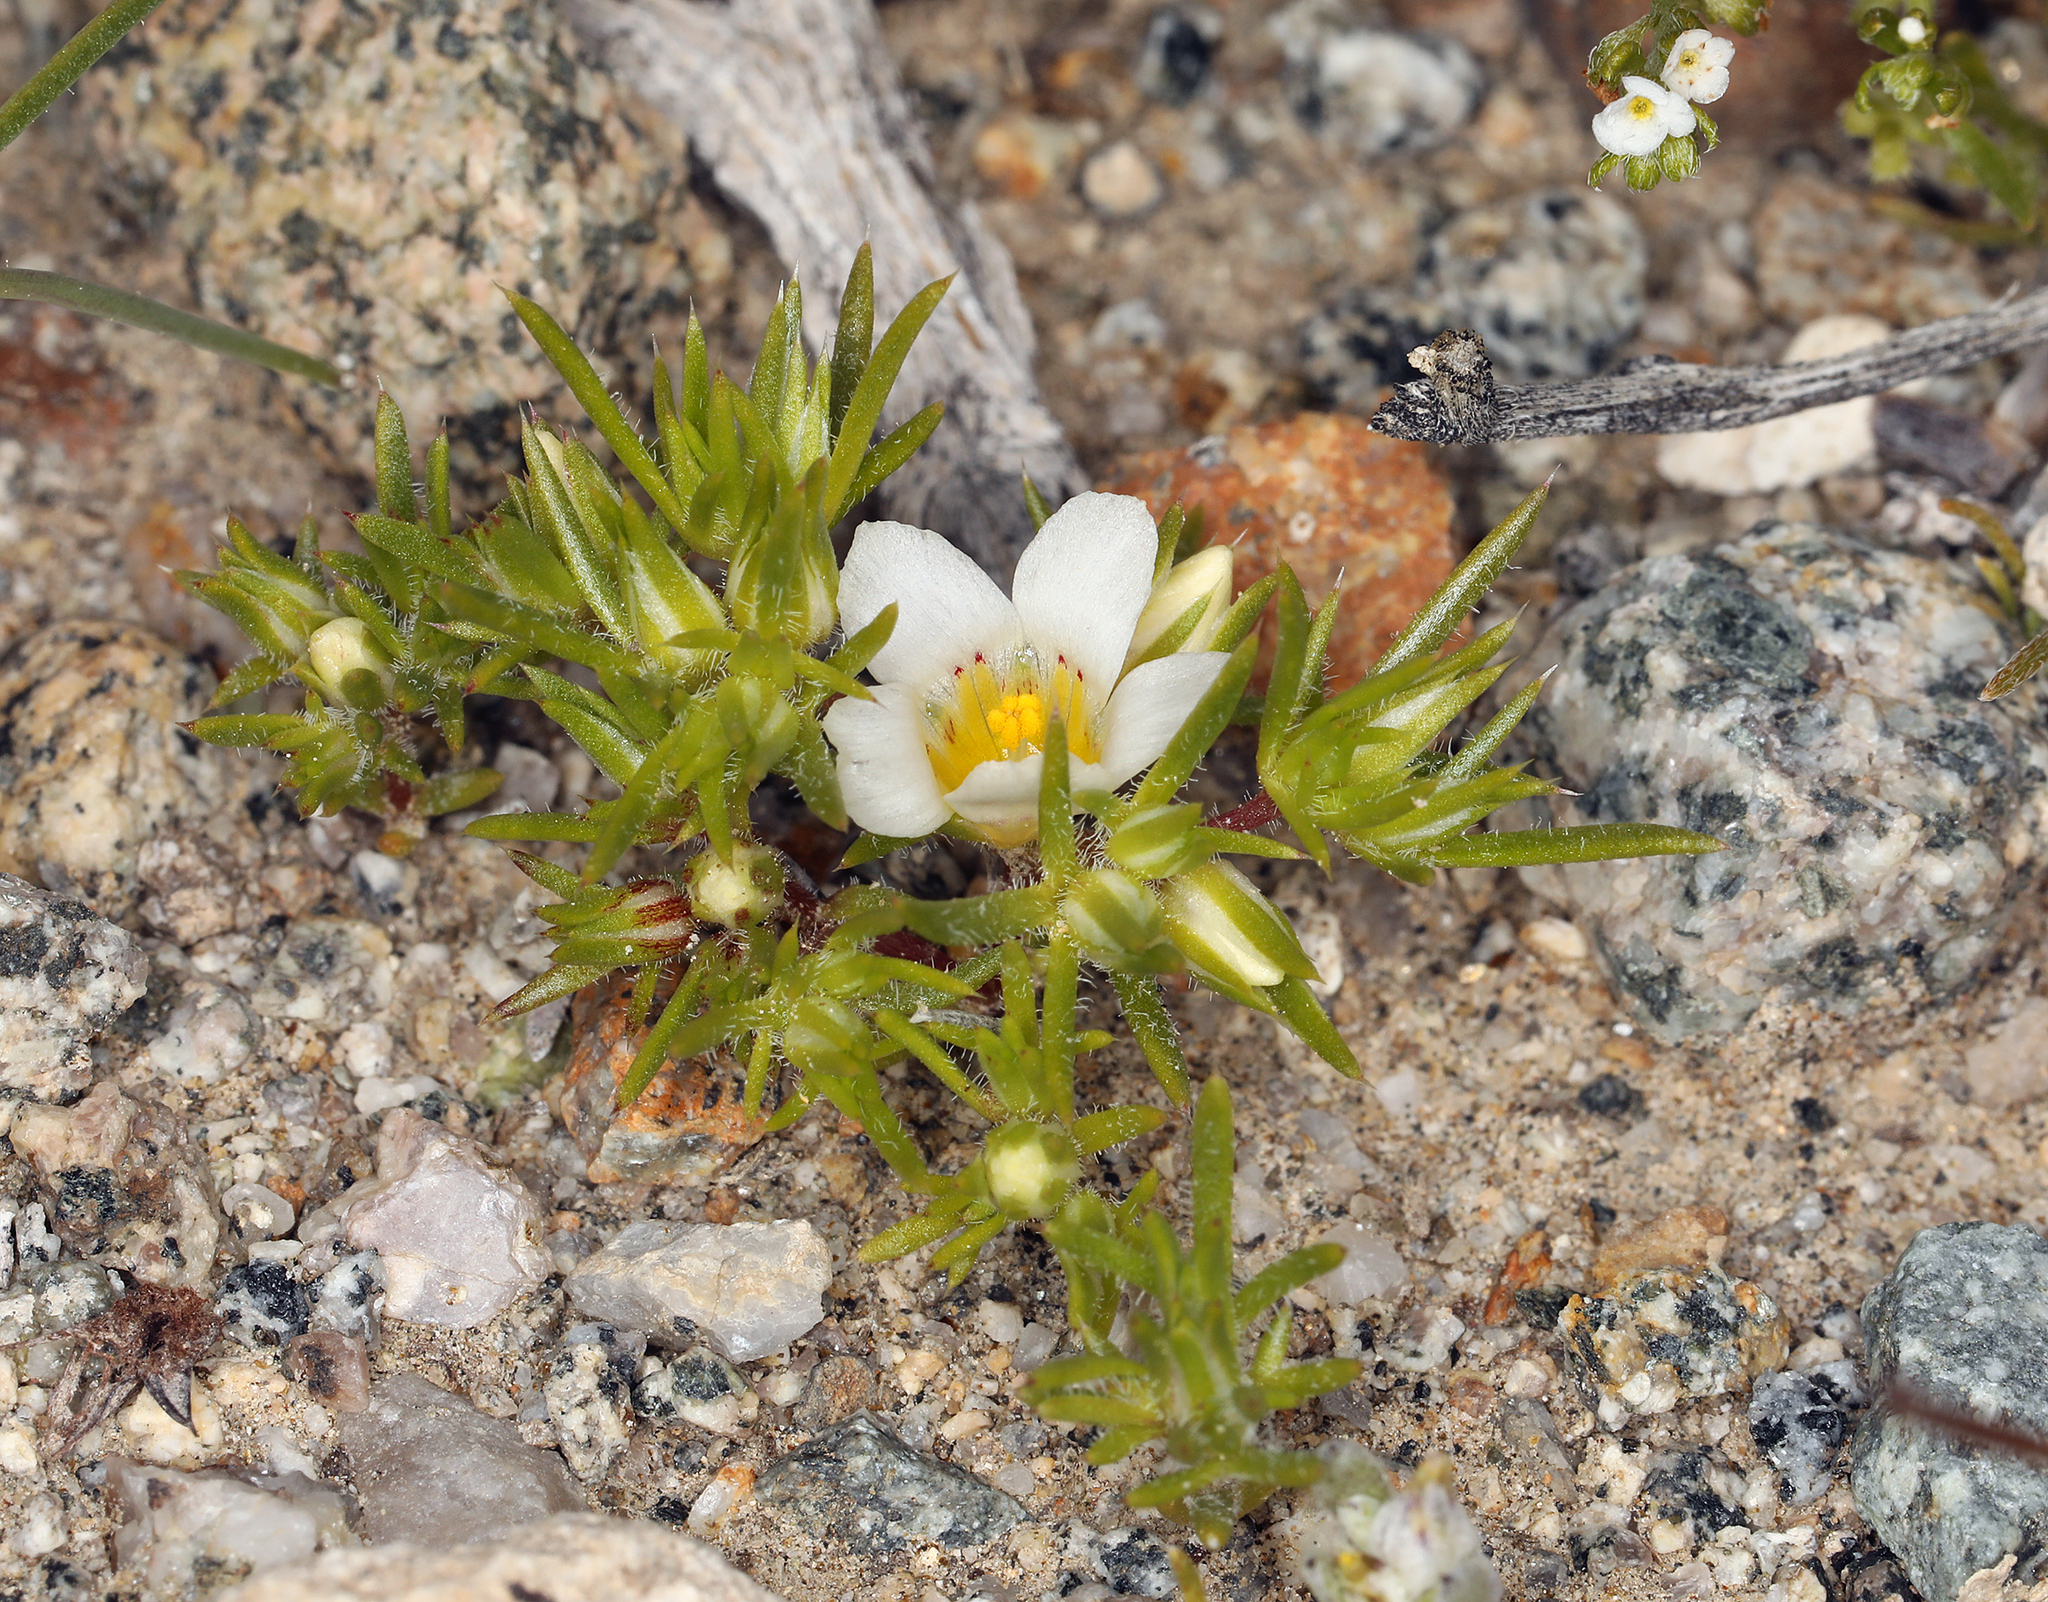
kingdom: Plantae
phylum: Tracheophyta
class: Magnoliopsida
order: Ericales
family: Polemoniaceae
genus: Linanthus
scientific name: Linanthus demissus
